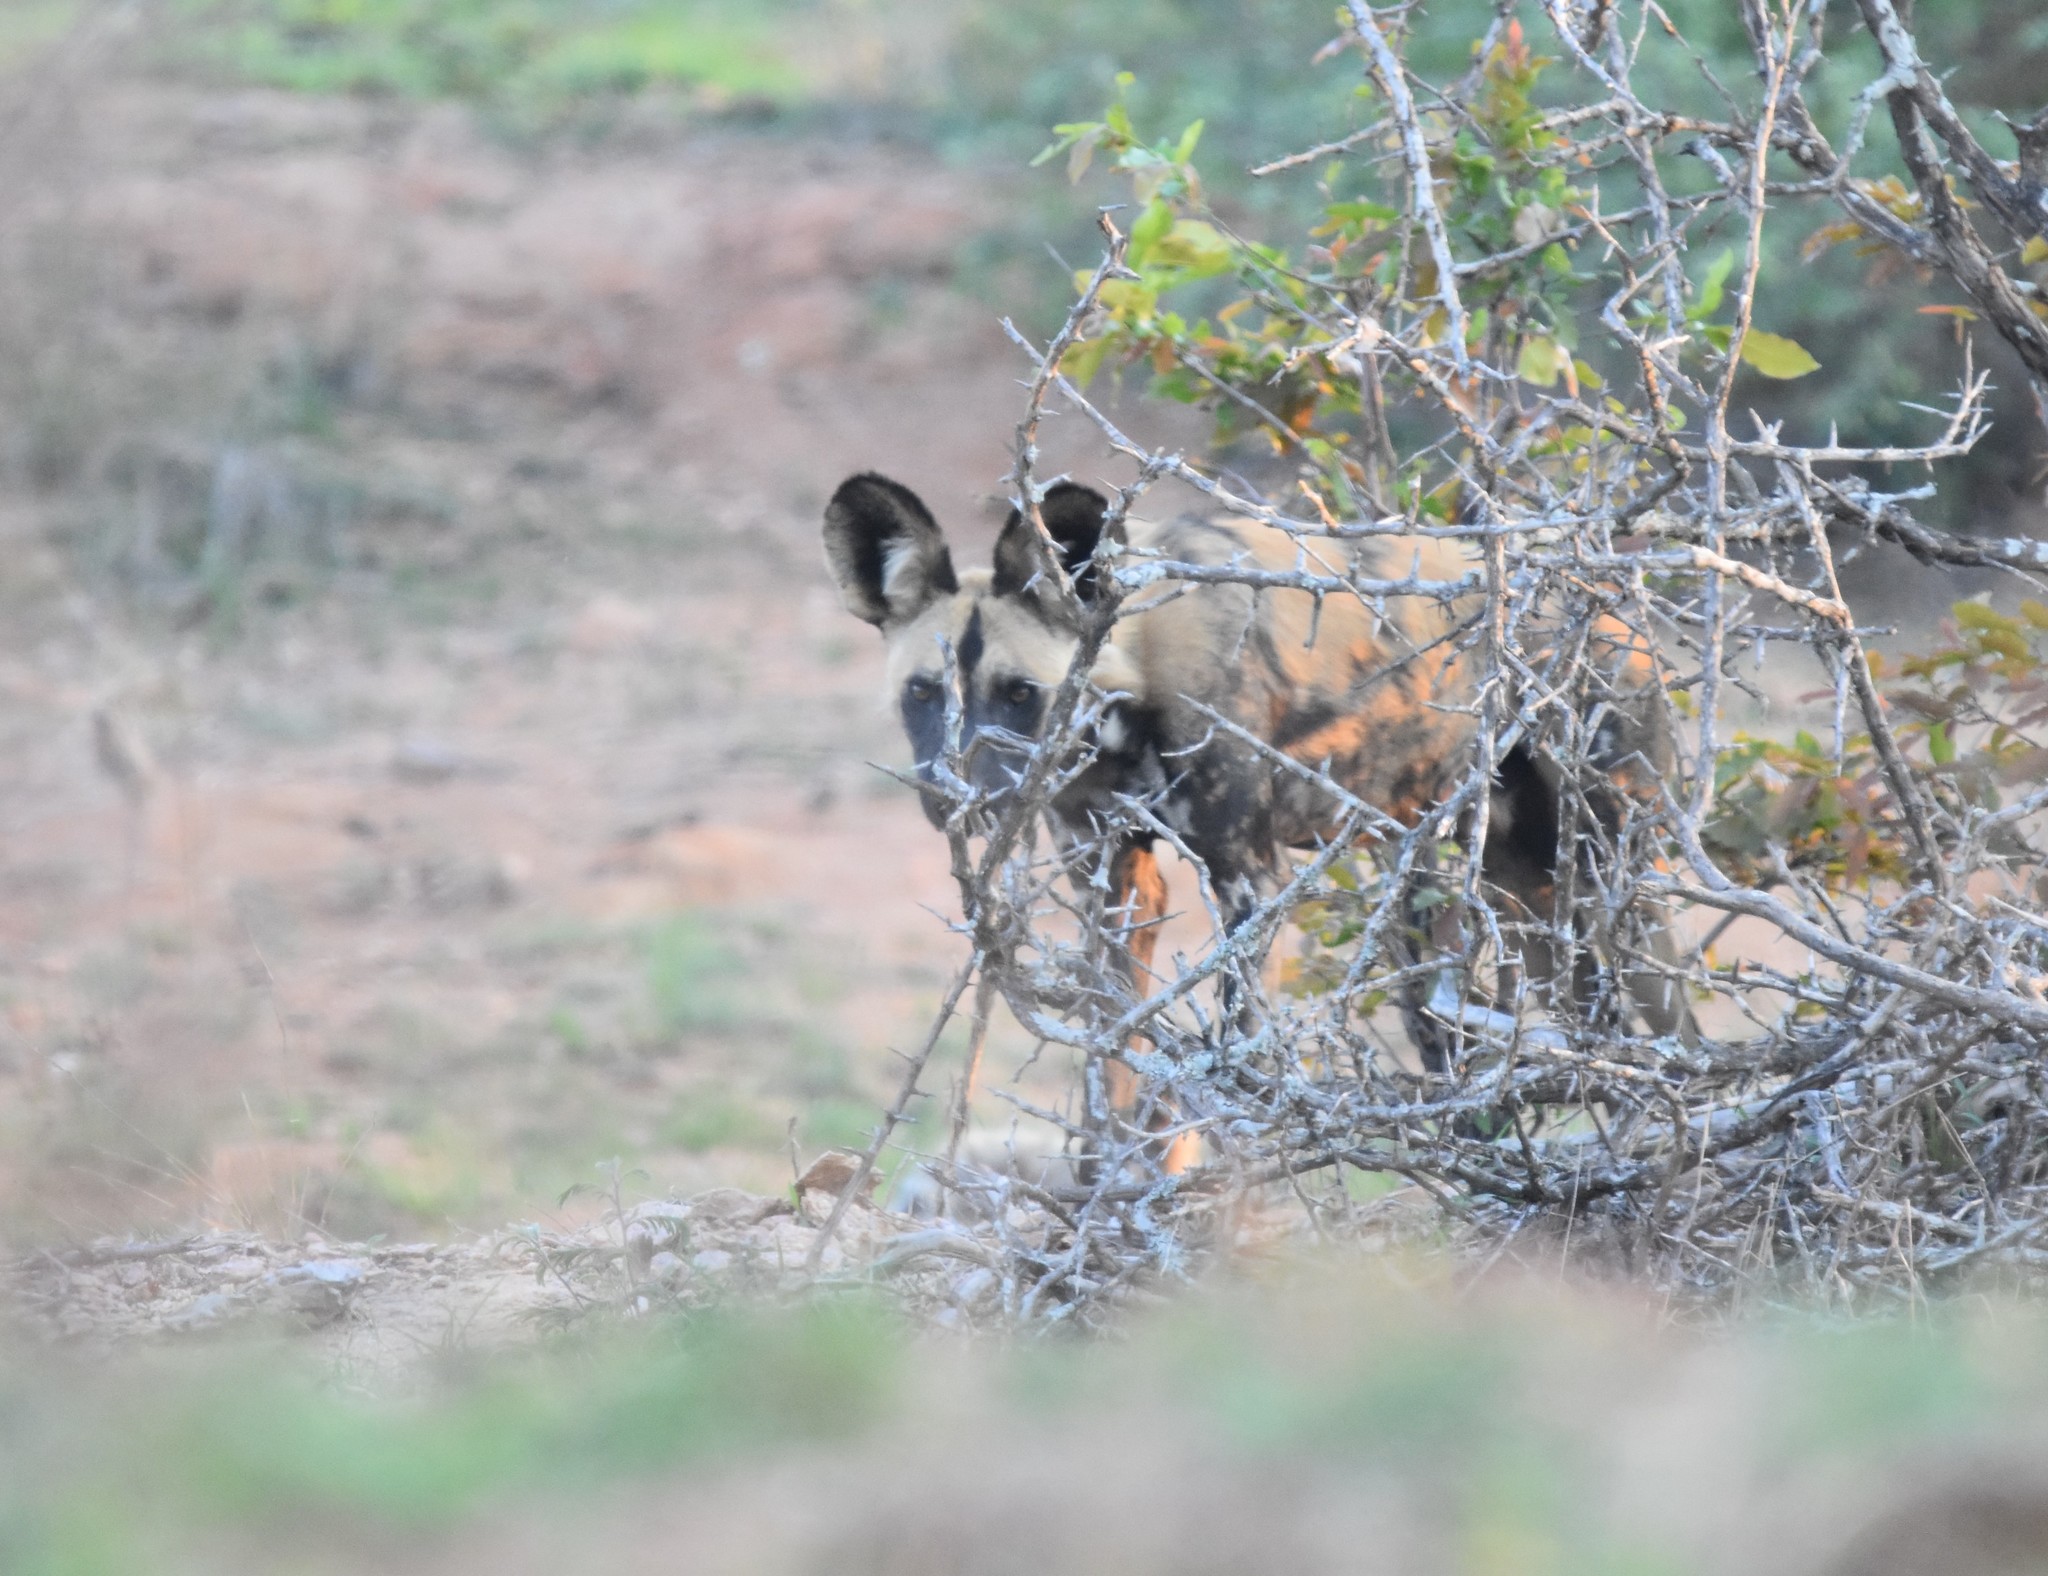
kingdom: Animalia
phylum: Chordata
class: Mammalia
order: Carnivora
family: Canidae
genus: Lycaon
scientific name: Lycaon pictus
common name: African wild dog
